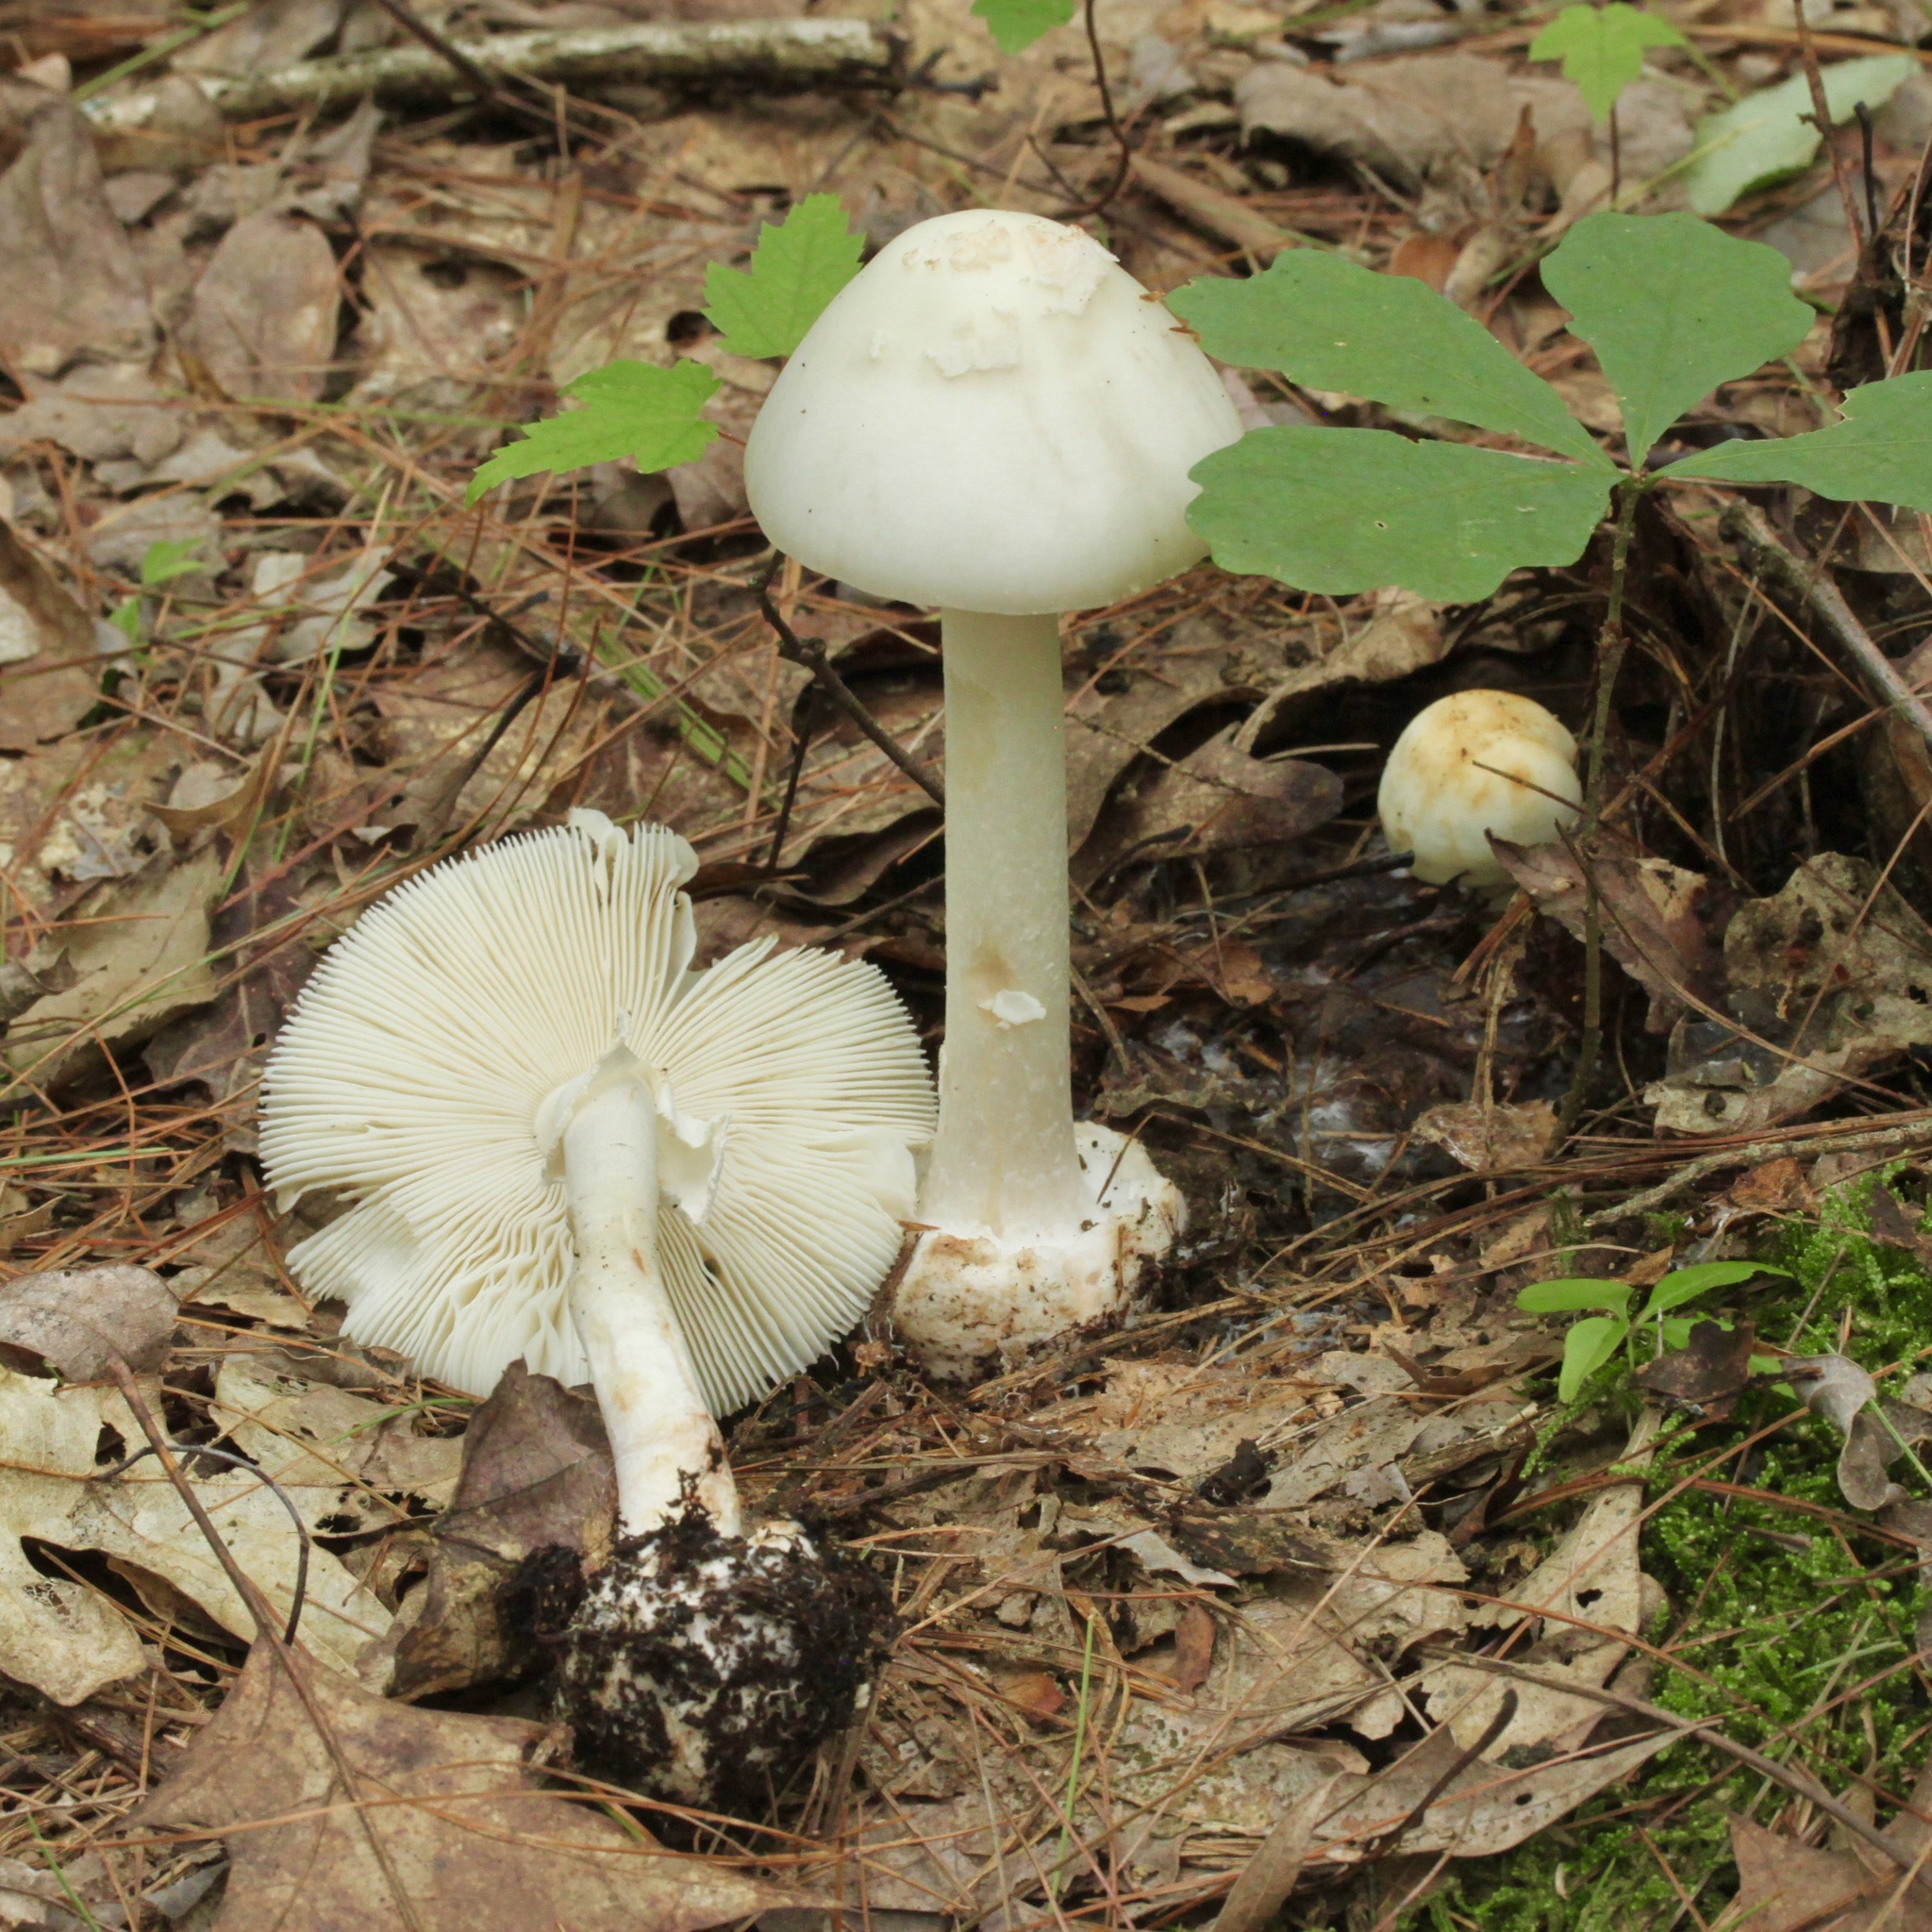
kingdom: Fungi
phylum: Basidiomycota
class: Agaricomycetes
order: Agaricales
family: Amanitaceae
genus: Amanita
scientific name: Amanita brunnescens
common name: Brown american star-footed amanita
